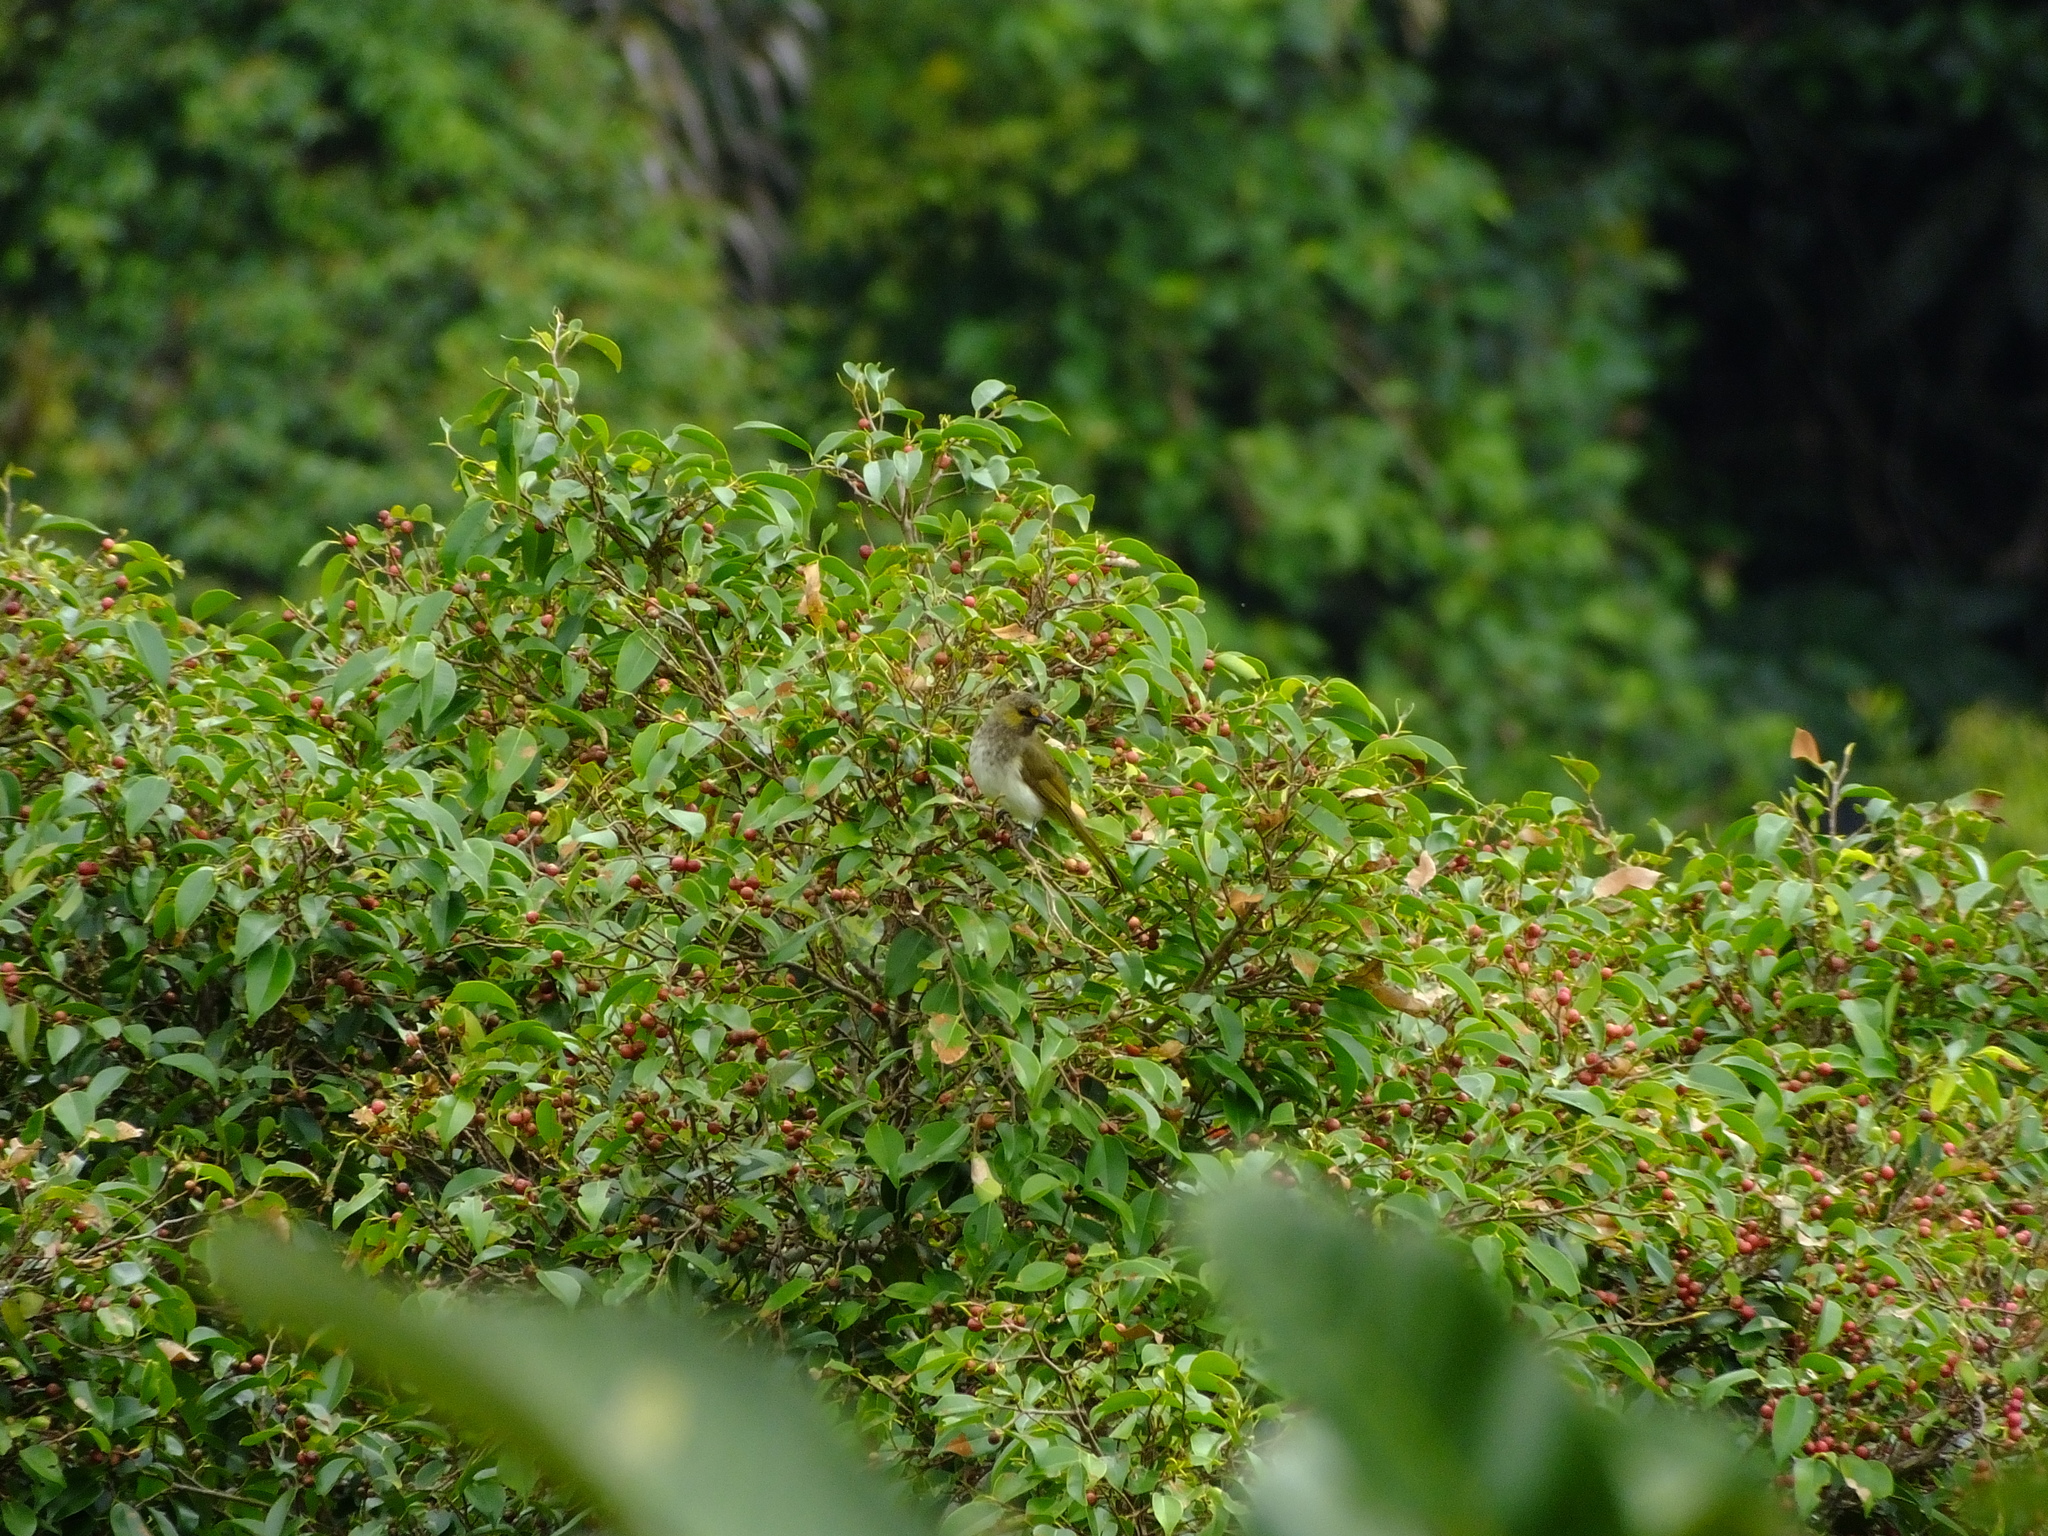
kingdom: Animalia
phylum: Chordata
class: Aves
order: Passeriformes
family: Pycnonotidae
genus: Pycnonotus
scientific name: Pycnonotus bimaculatus
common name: Orange-spotted bulbul
